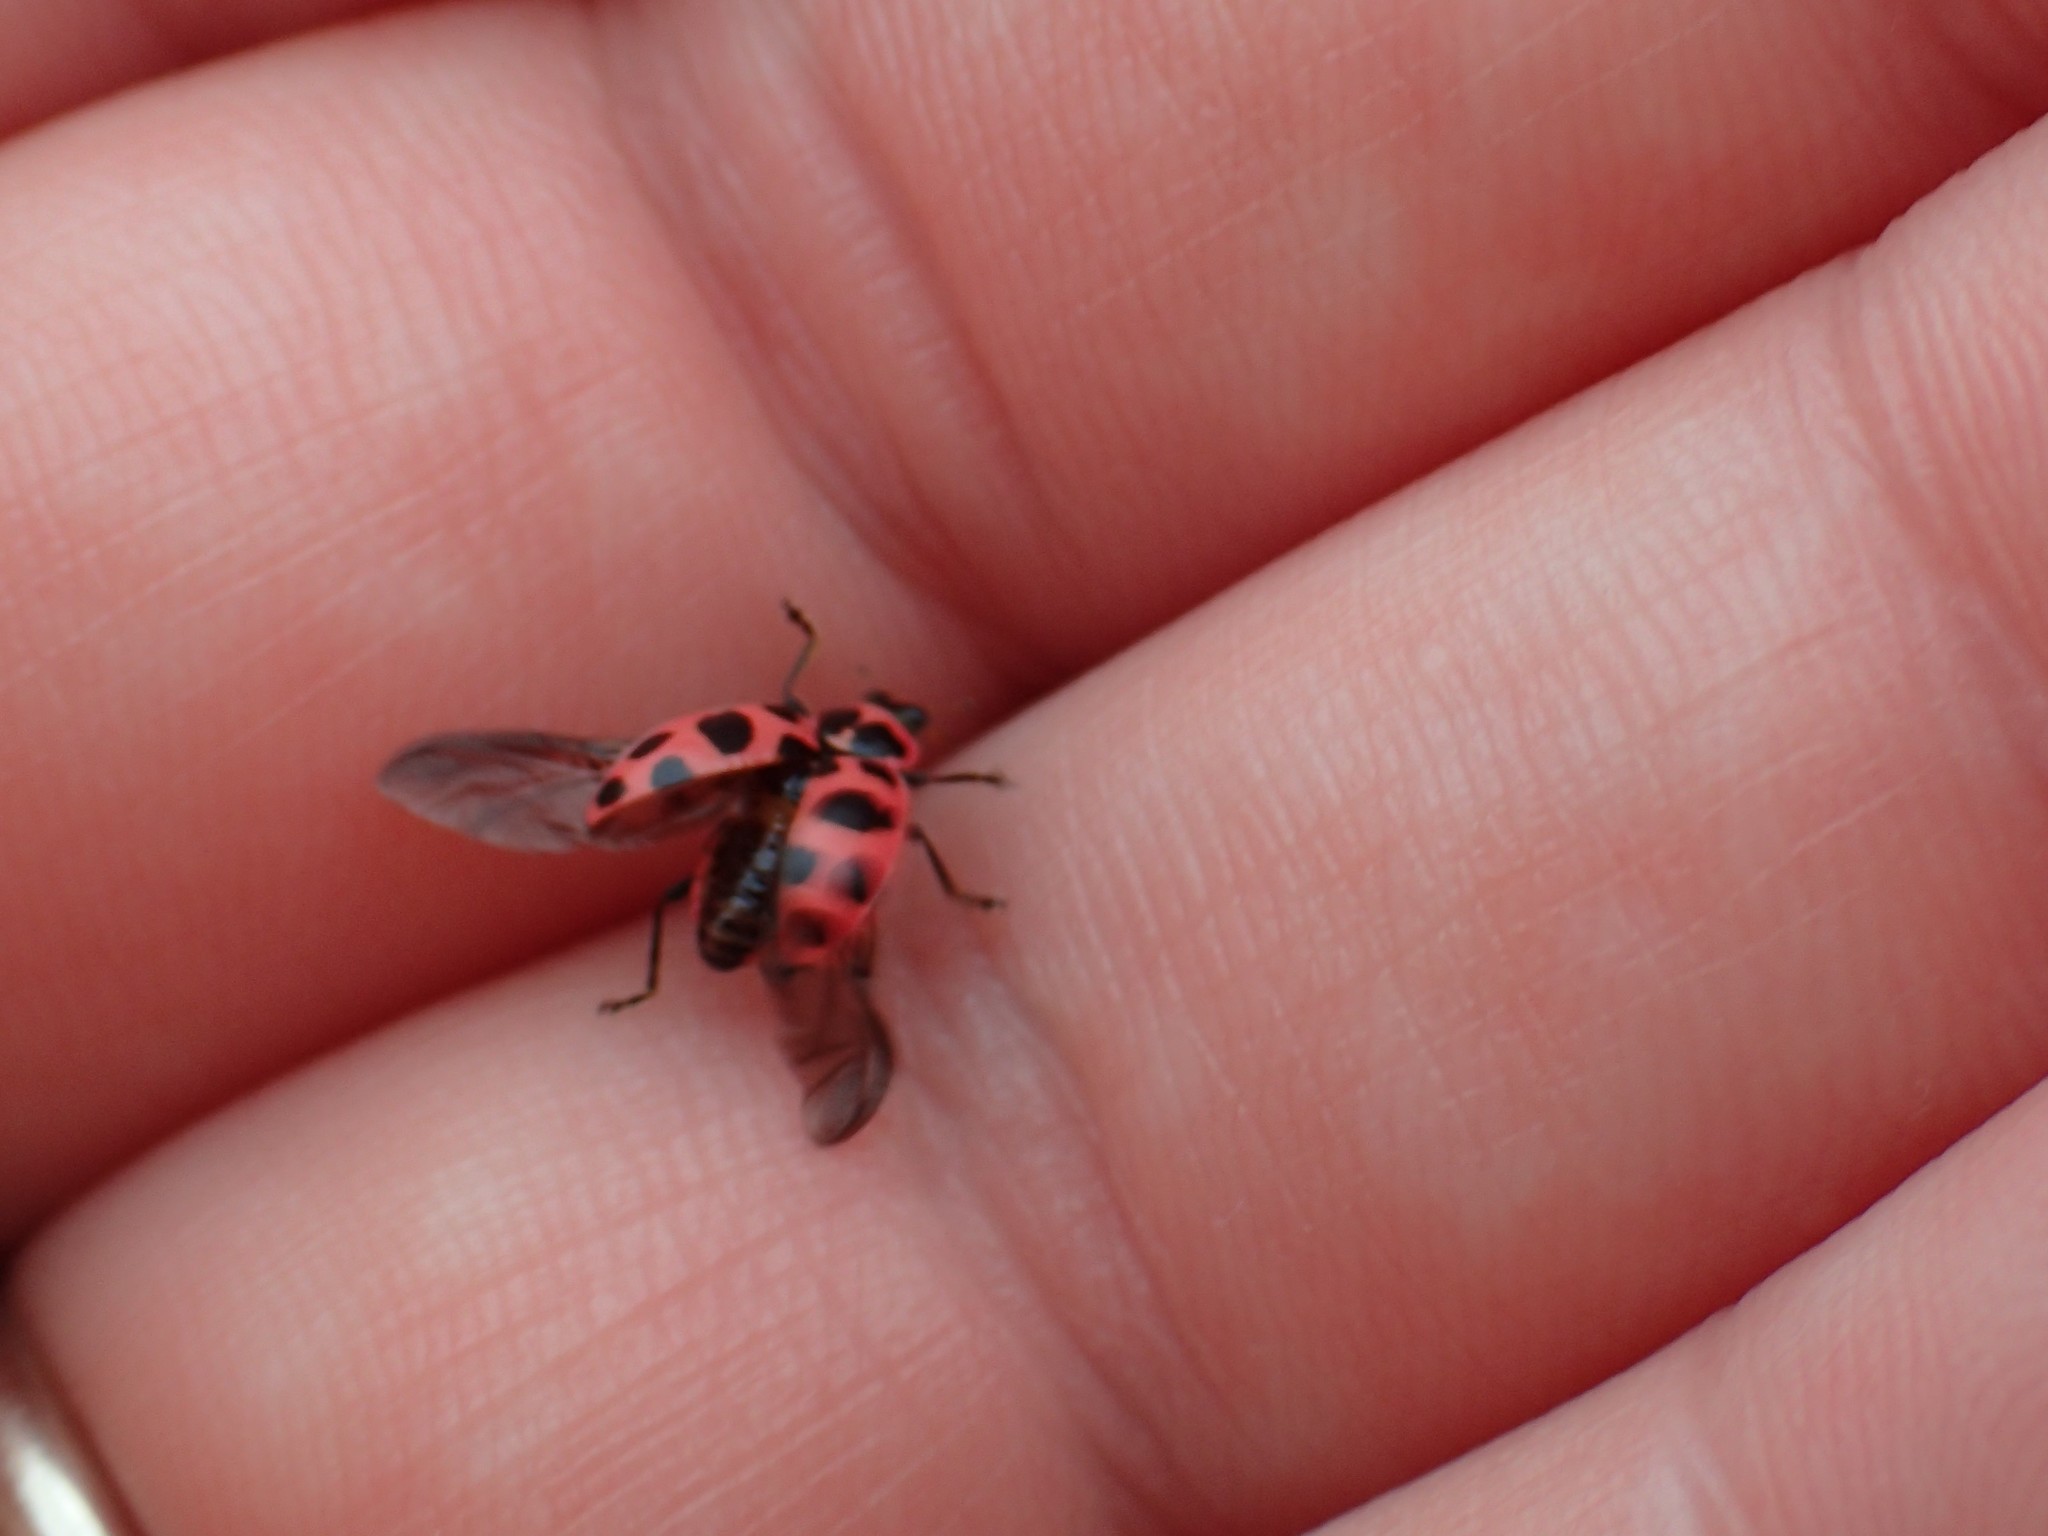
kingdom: Animalia
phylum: Arthropoda
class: Insecta
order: Coleoptera
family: Coccinellidae
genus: Coleomegilla
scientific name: Coleomegilla maculata
